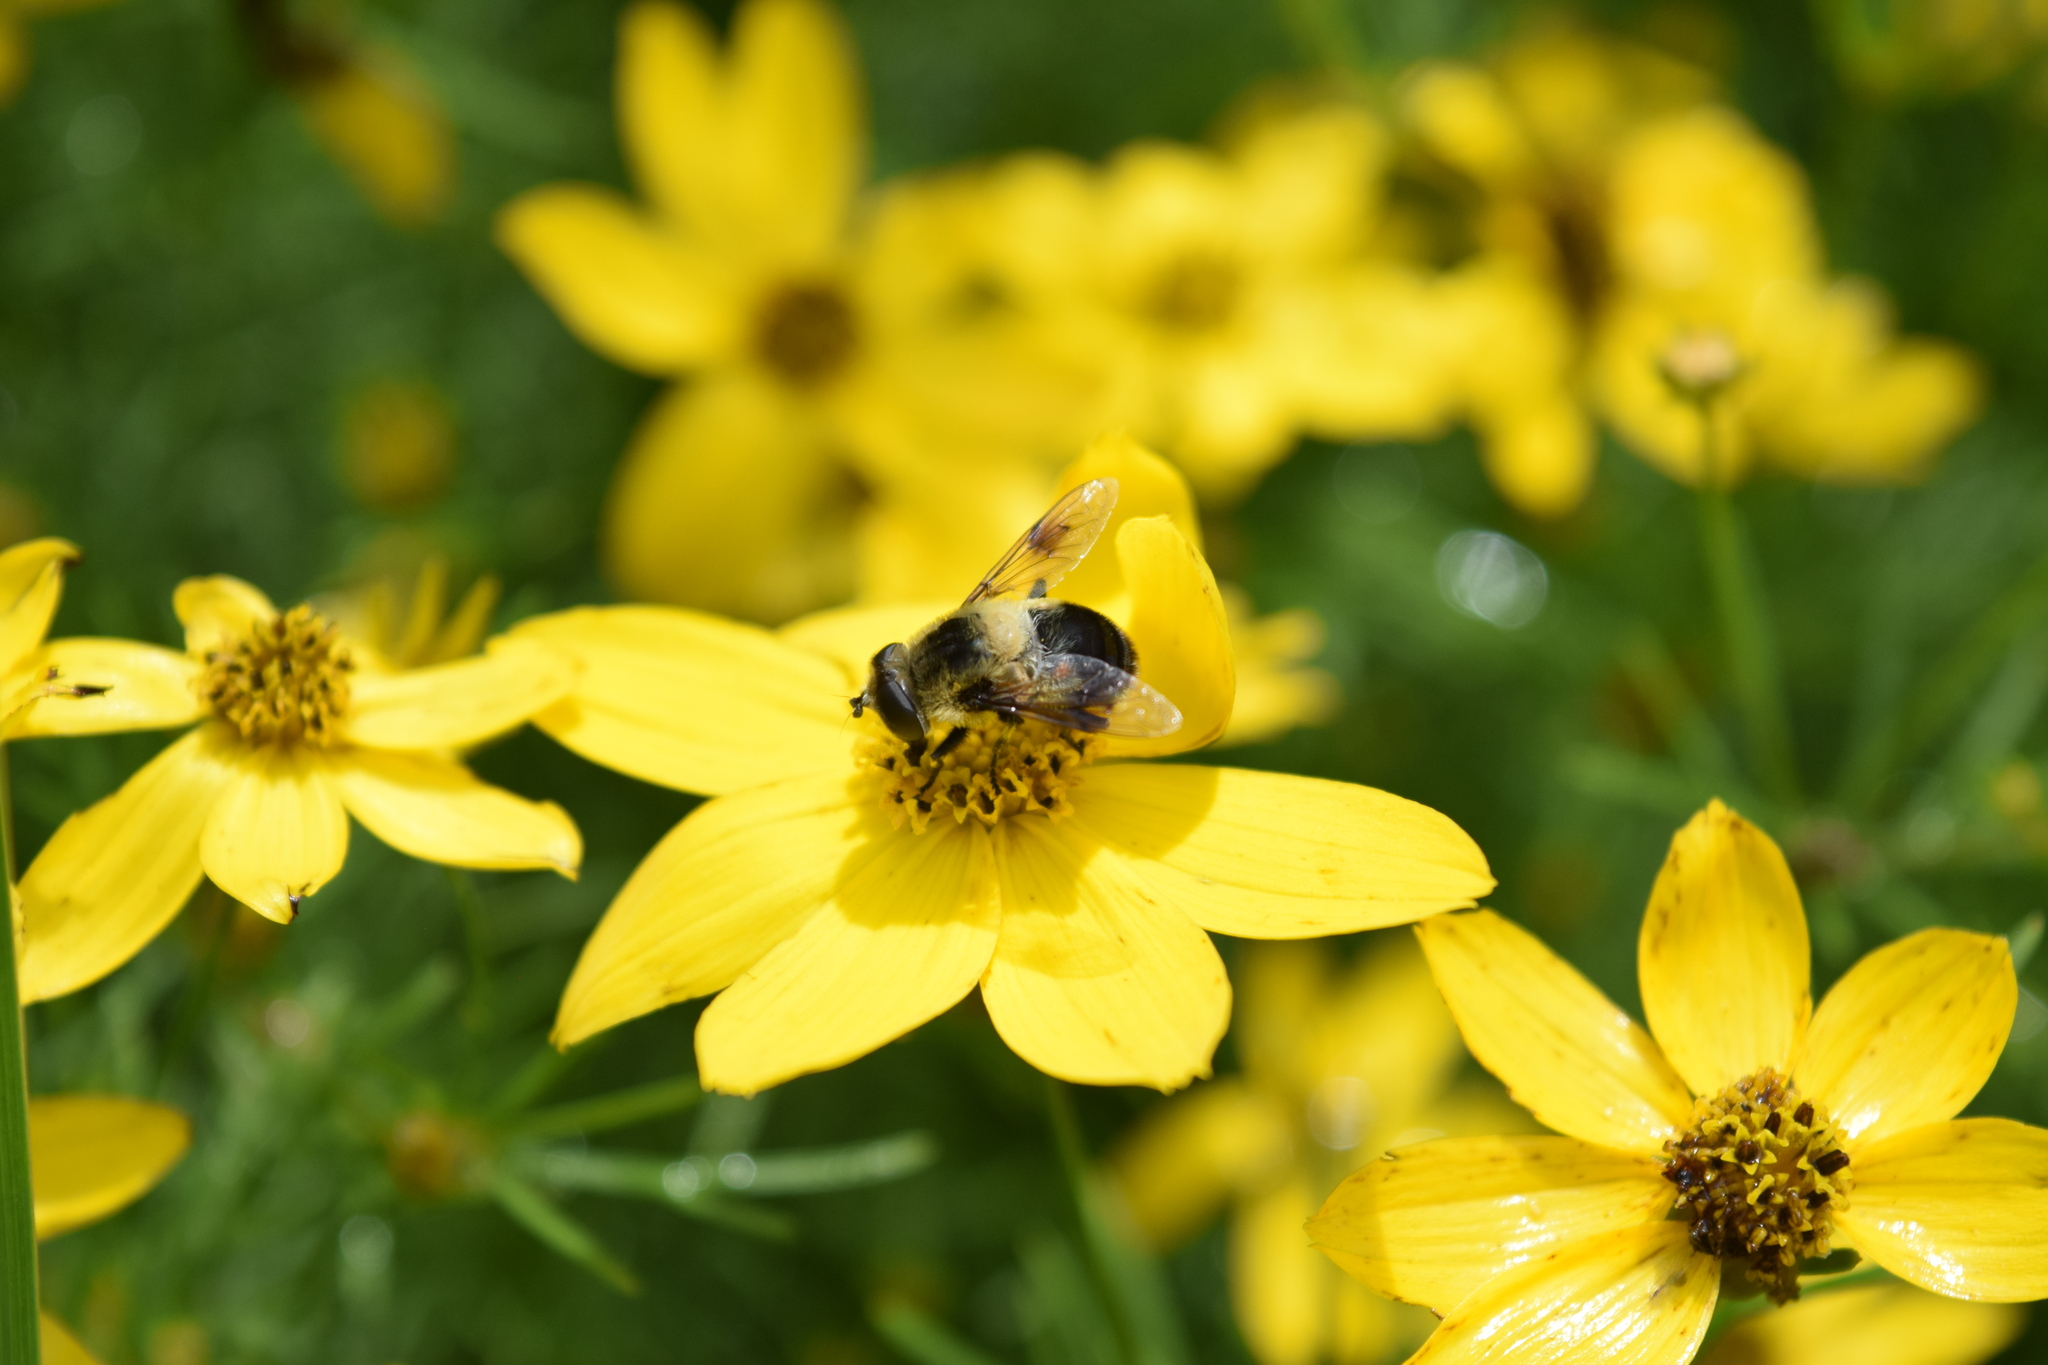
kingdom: Animalia
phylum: Arthropoda
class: Insecta
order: Diptera
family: Syrphidae
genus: Eristalis
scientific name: Eristalis anthophorina
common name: Orange-spotted drone fly
